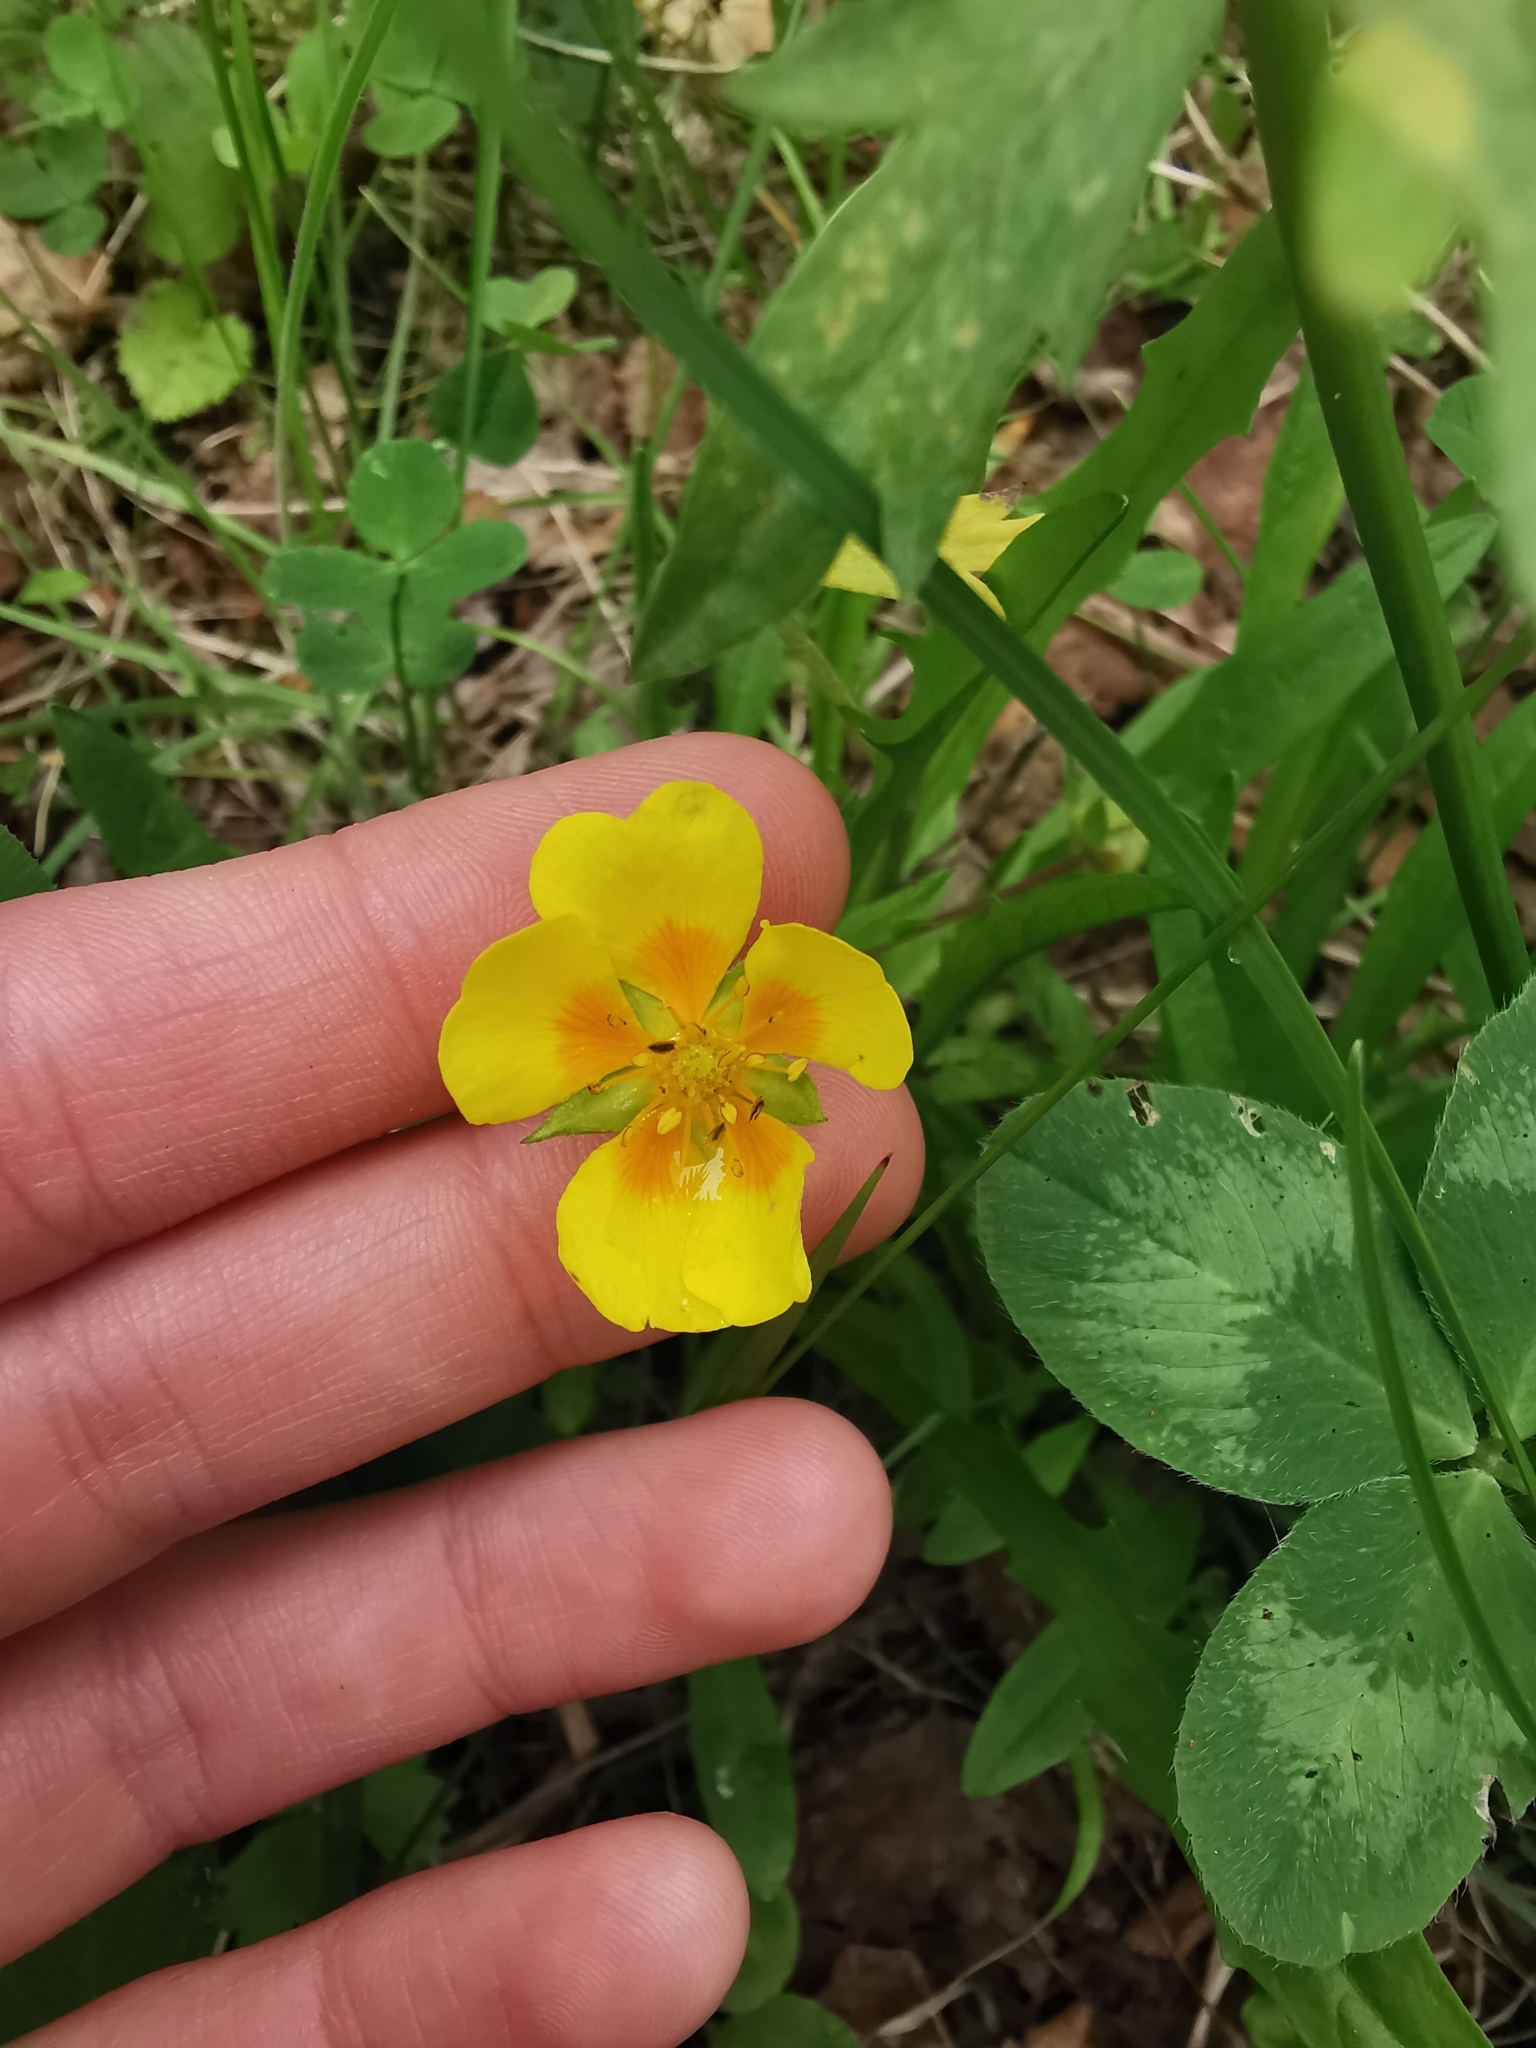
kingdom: Plantae
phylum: Tracheophyta
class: Magnoliopsida
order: Rosales
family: Rosaceae
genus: Potentilla
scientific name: Potentilla stolonifera
